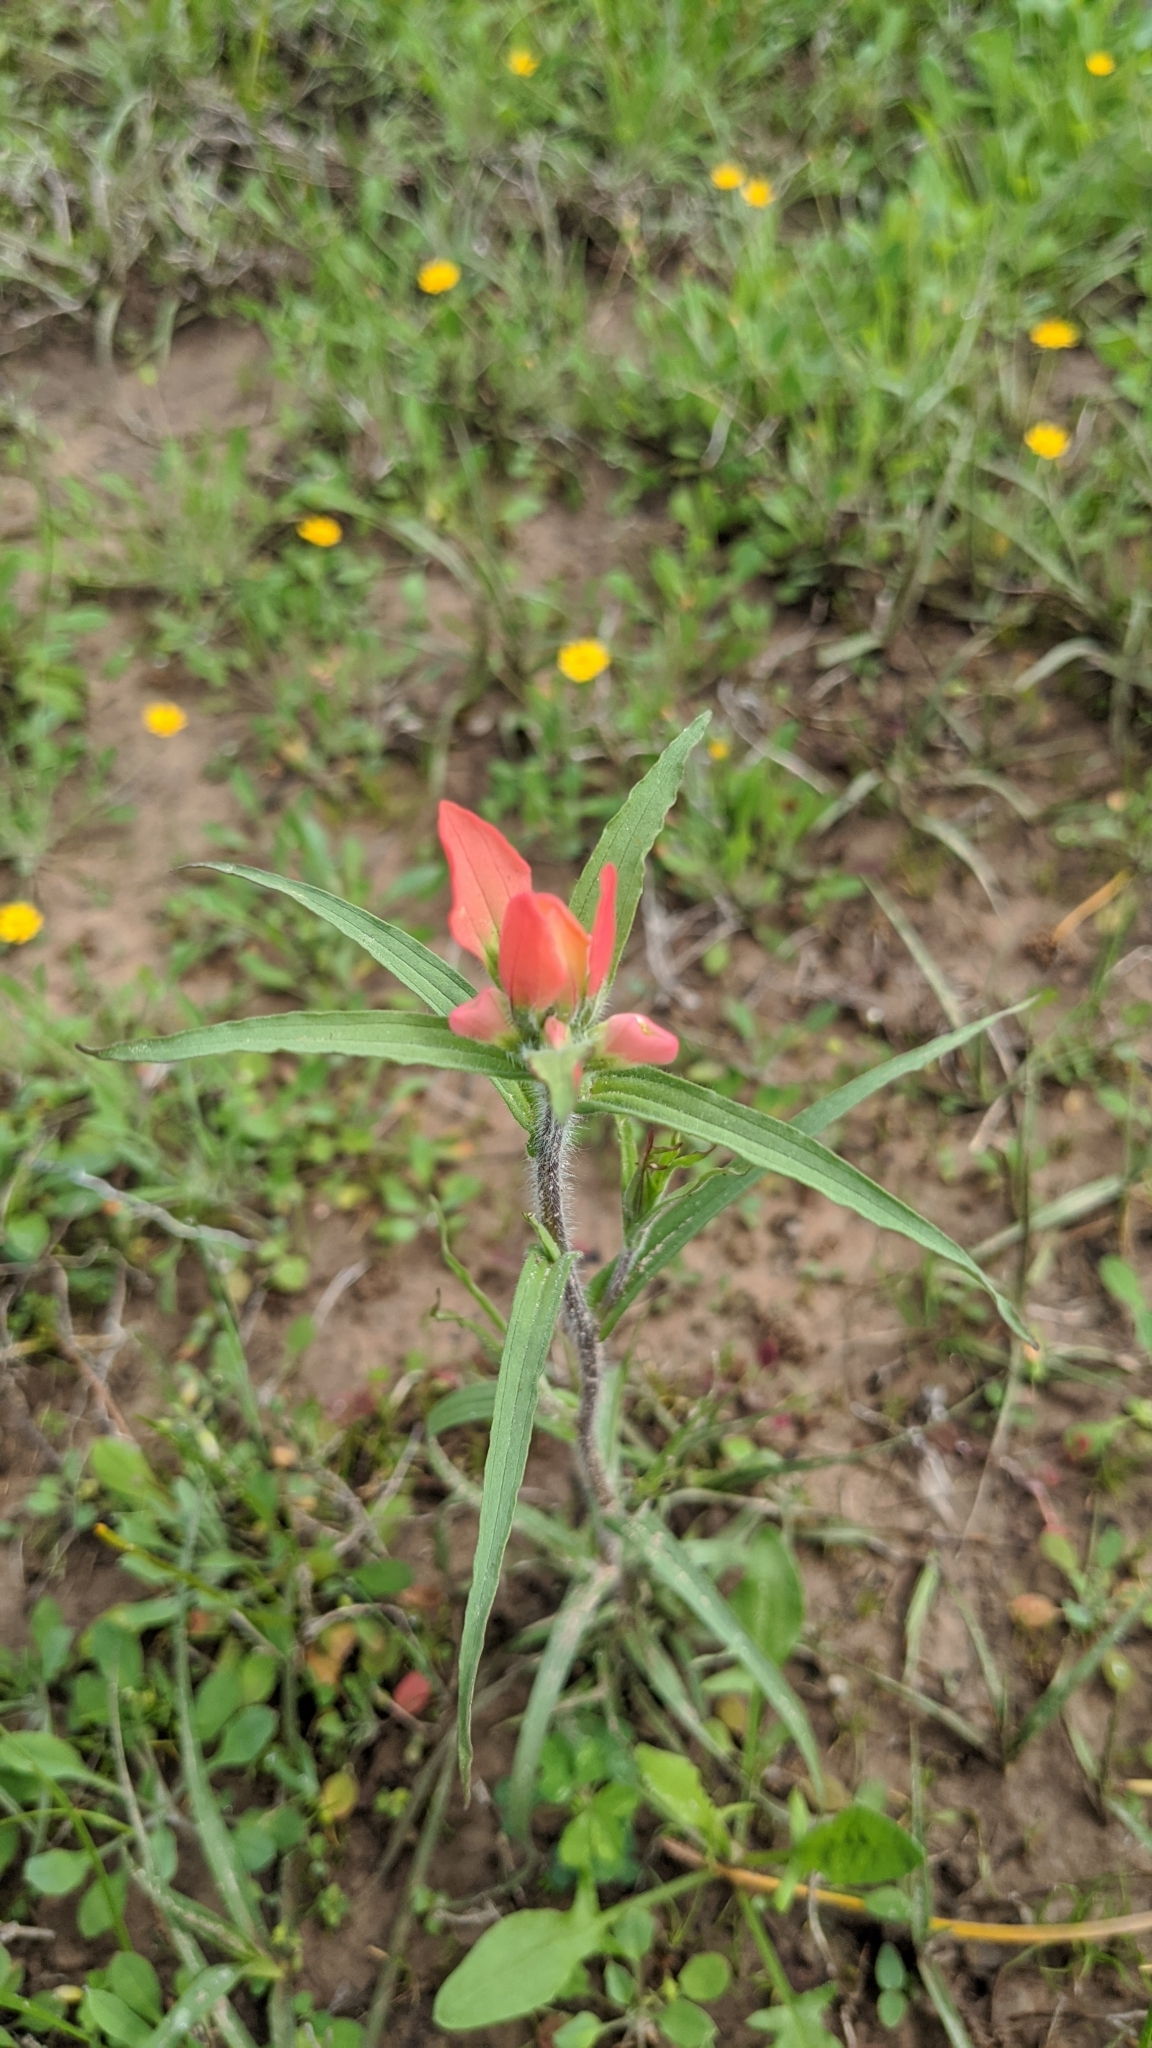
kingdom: Plantae
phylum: Tracheophyta
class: Magnoliopsida
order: Lamiales
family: Orobanchaceae
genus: Castilleja
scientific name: Castilleja indivisa
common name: Texas paintbrush
